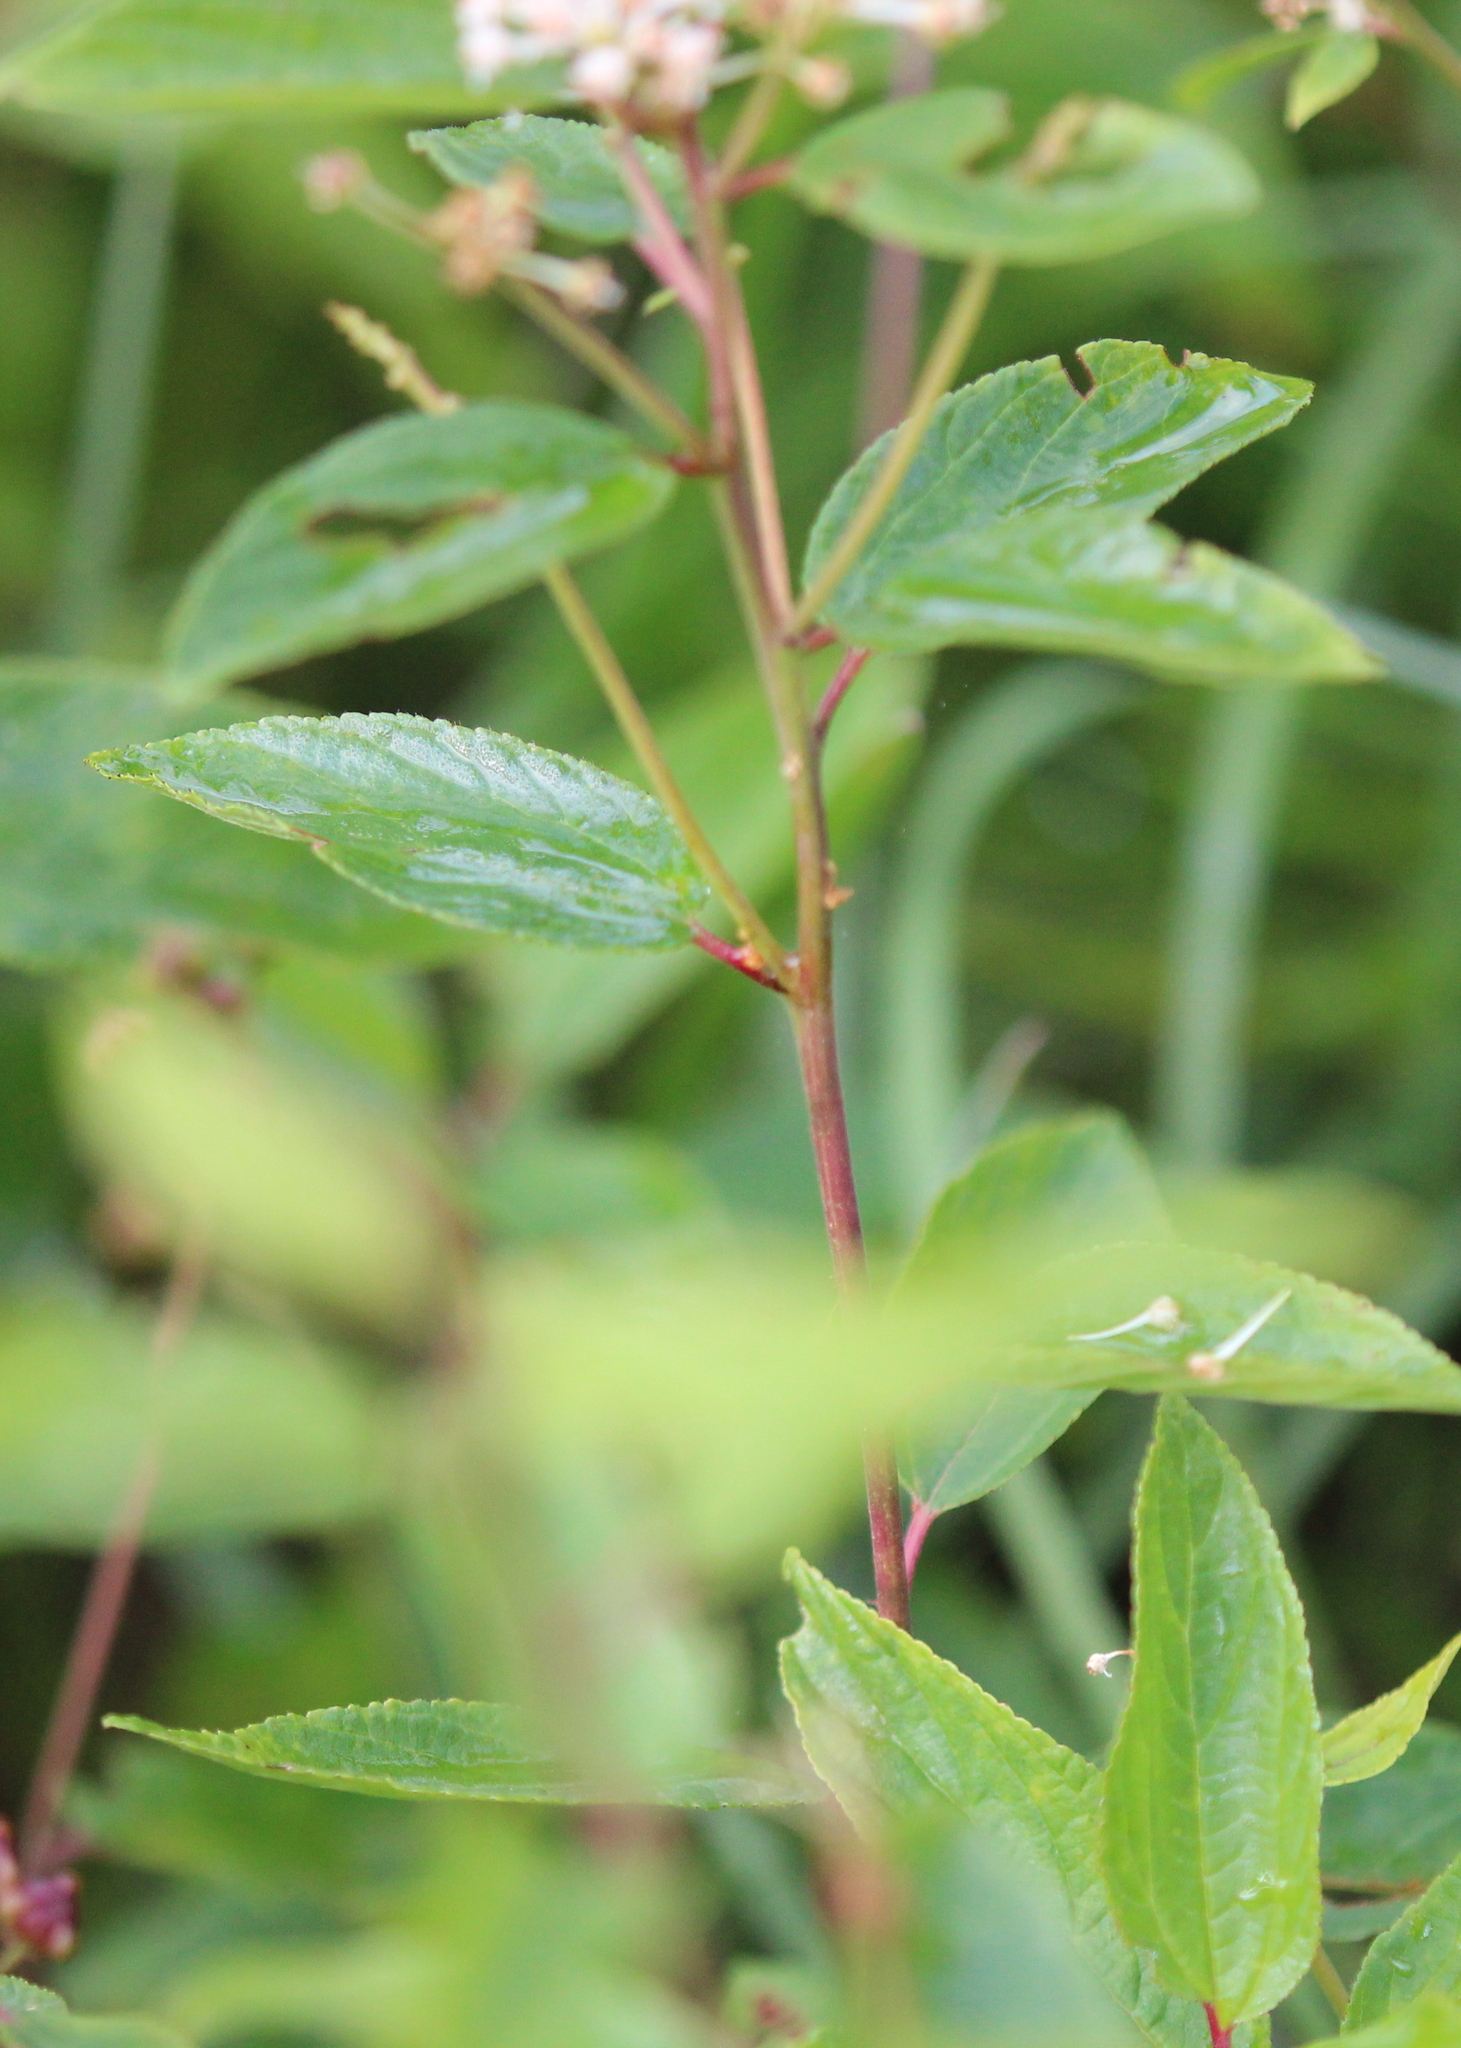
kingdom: Plantae
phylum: Tracheophyta
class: Magnoliopsida
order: Rosales
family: Rhamnaceae
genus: Ceanothus
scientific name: Ceanothus americanus
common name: Redroot
